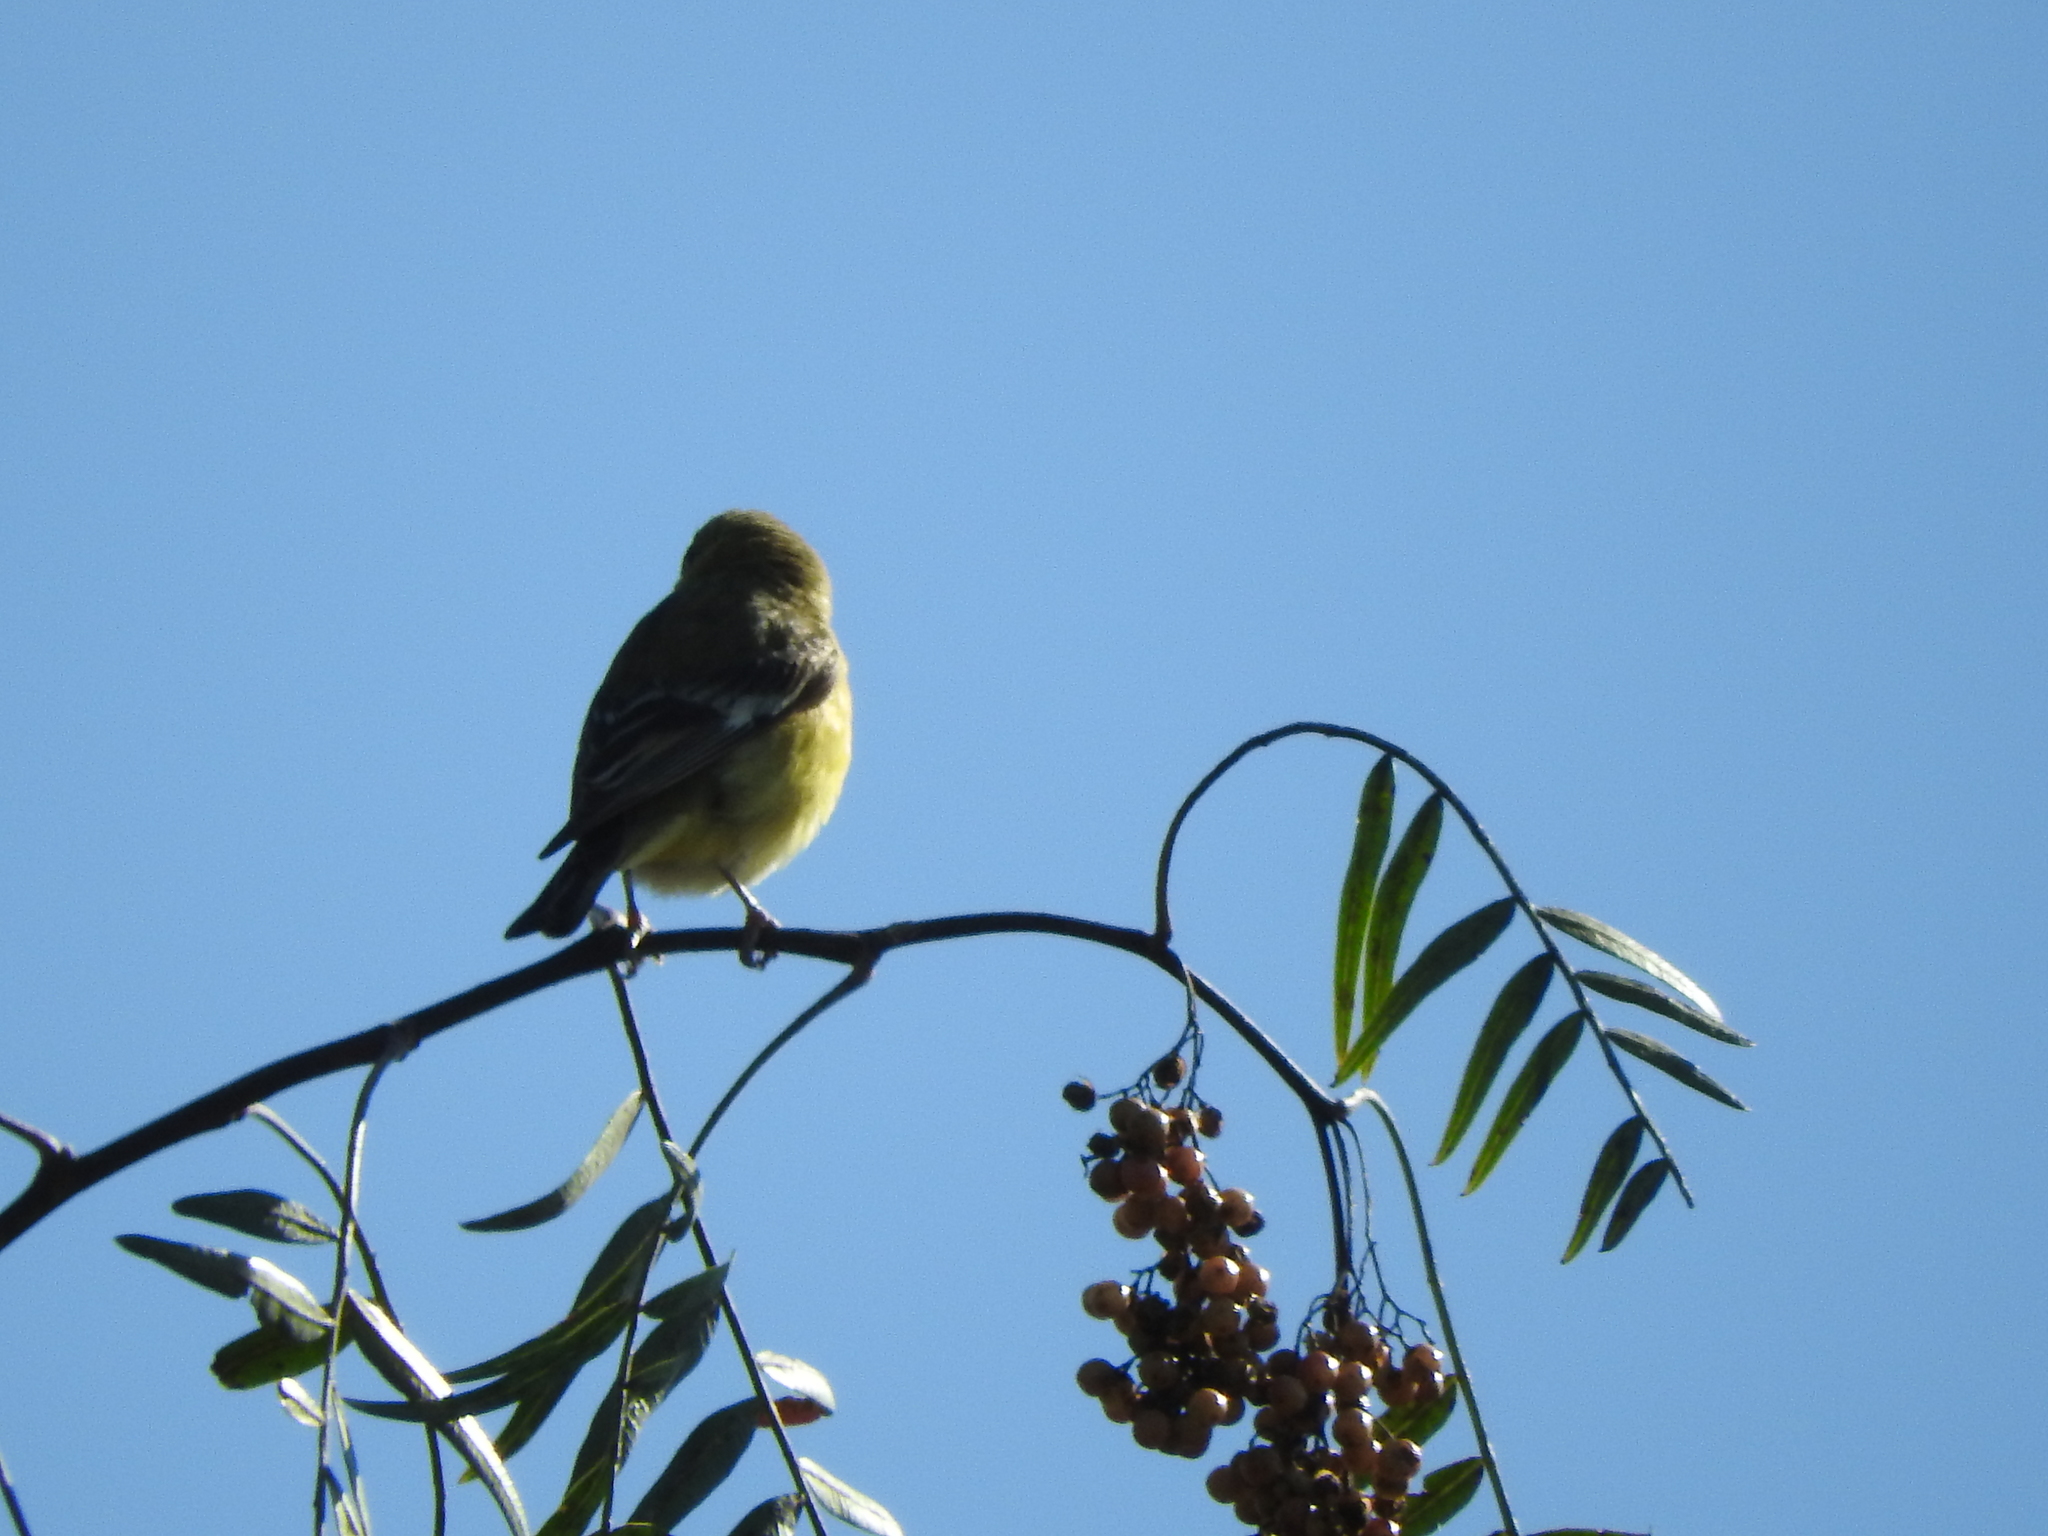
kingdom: Animalia
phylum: Chordata
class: Aves
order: Passeriformes
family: Fringillidae
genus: Spinus
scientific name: Spinus psaltria
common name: Lesser goldfinch
